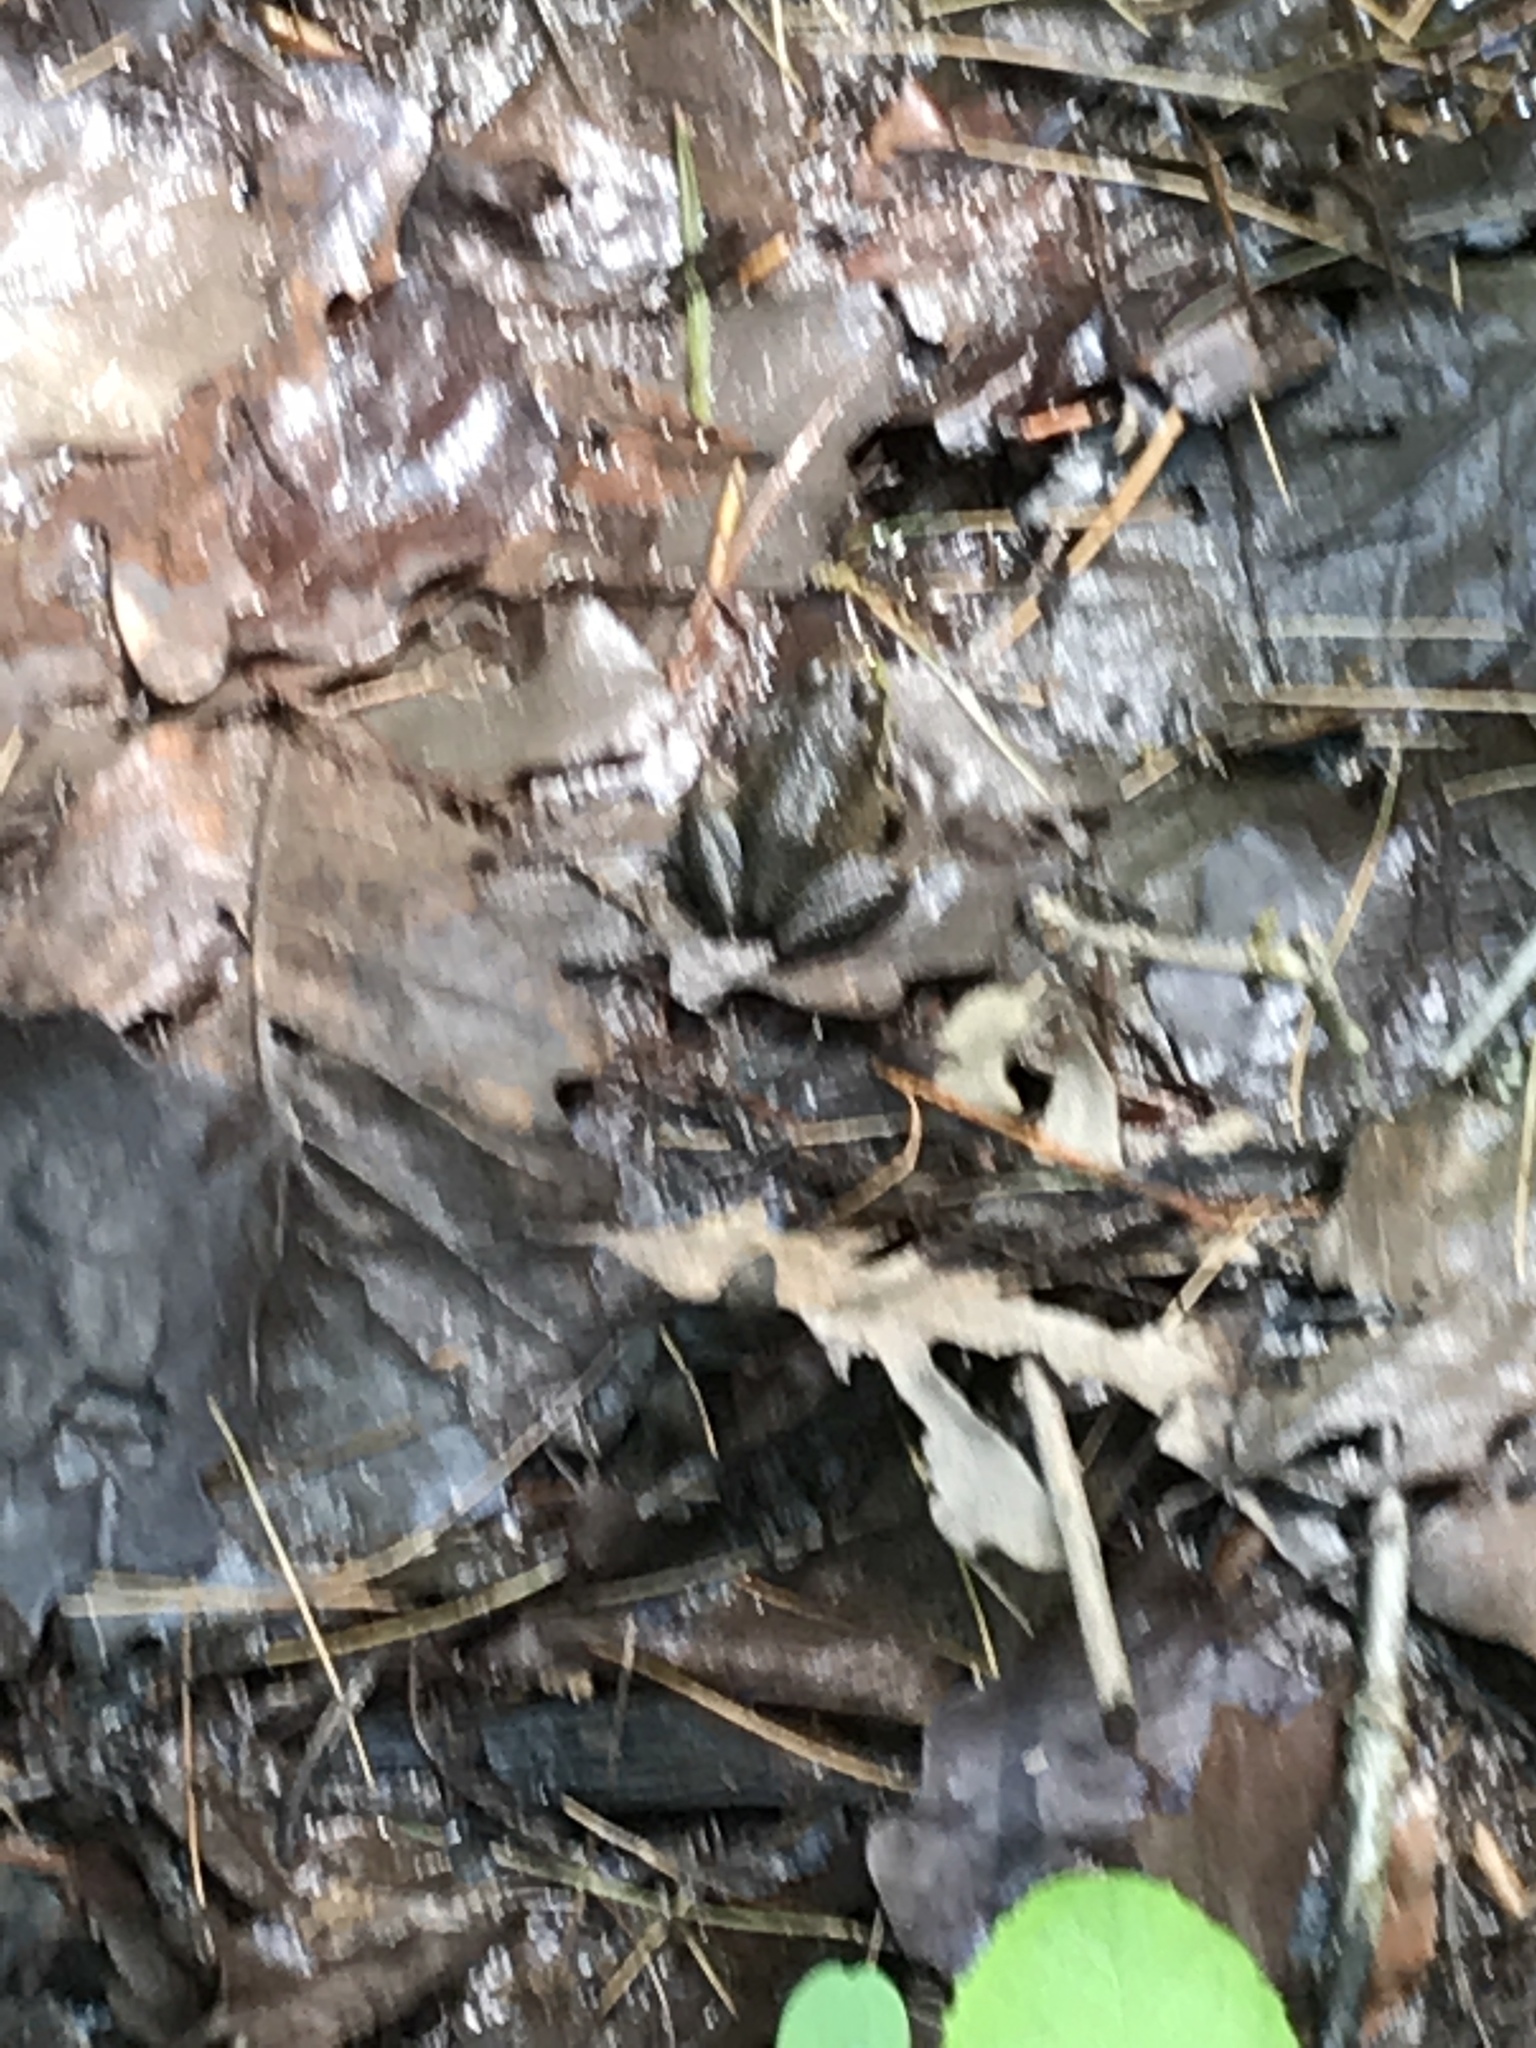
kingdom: Animalia
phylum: Chordata
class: Amphibia
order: Anura
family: Ranidae
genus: Lithobates
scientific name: Lithobates clamitans
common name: Green frog
